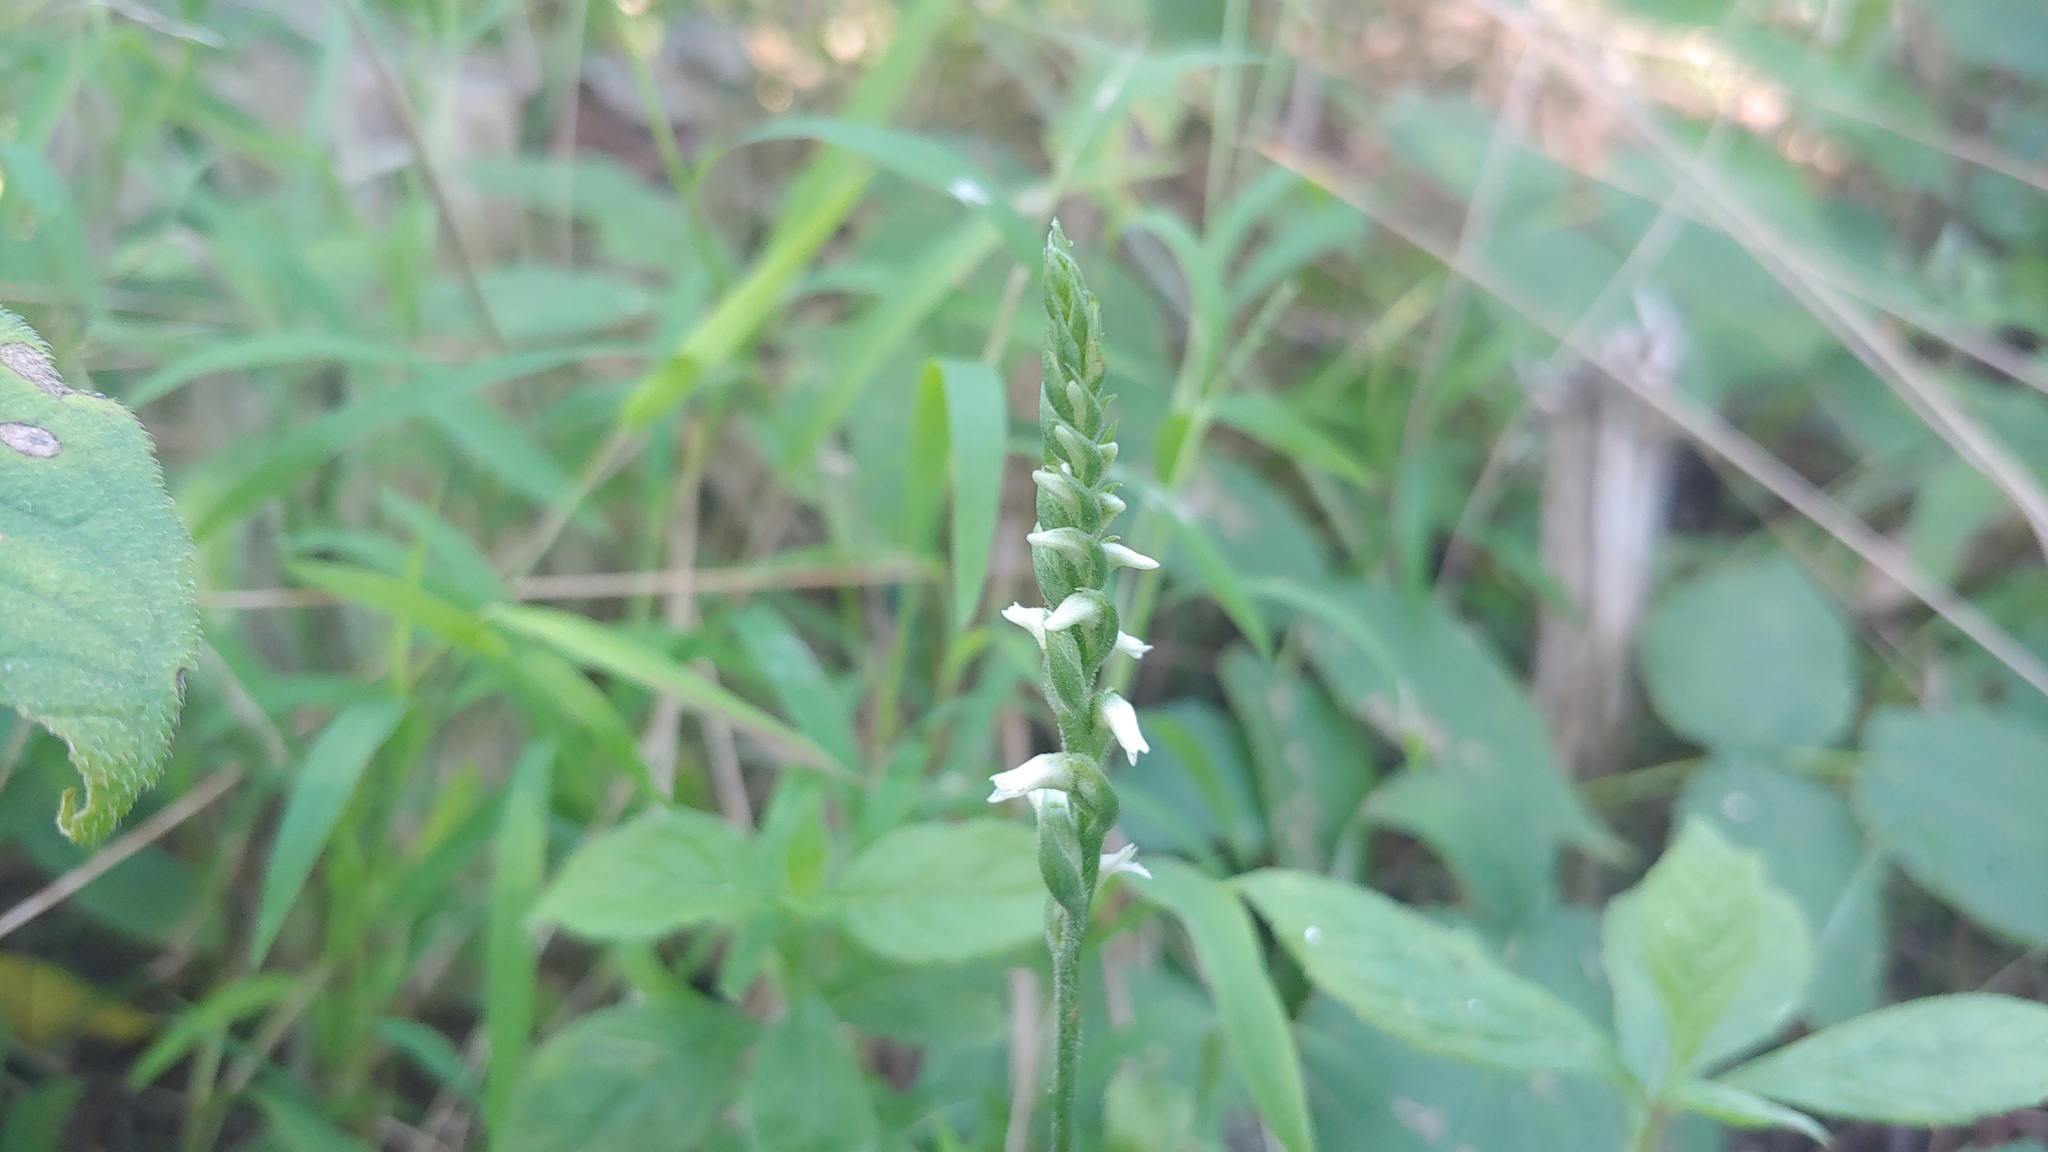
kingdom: Plantae
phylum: Tracheophyta
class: Liliopsida
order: Asparagales
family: Orchidaceae
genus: Spiranthes
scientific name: Spiranthes ovalis
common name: October ladies'-tresses
